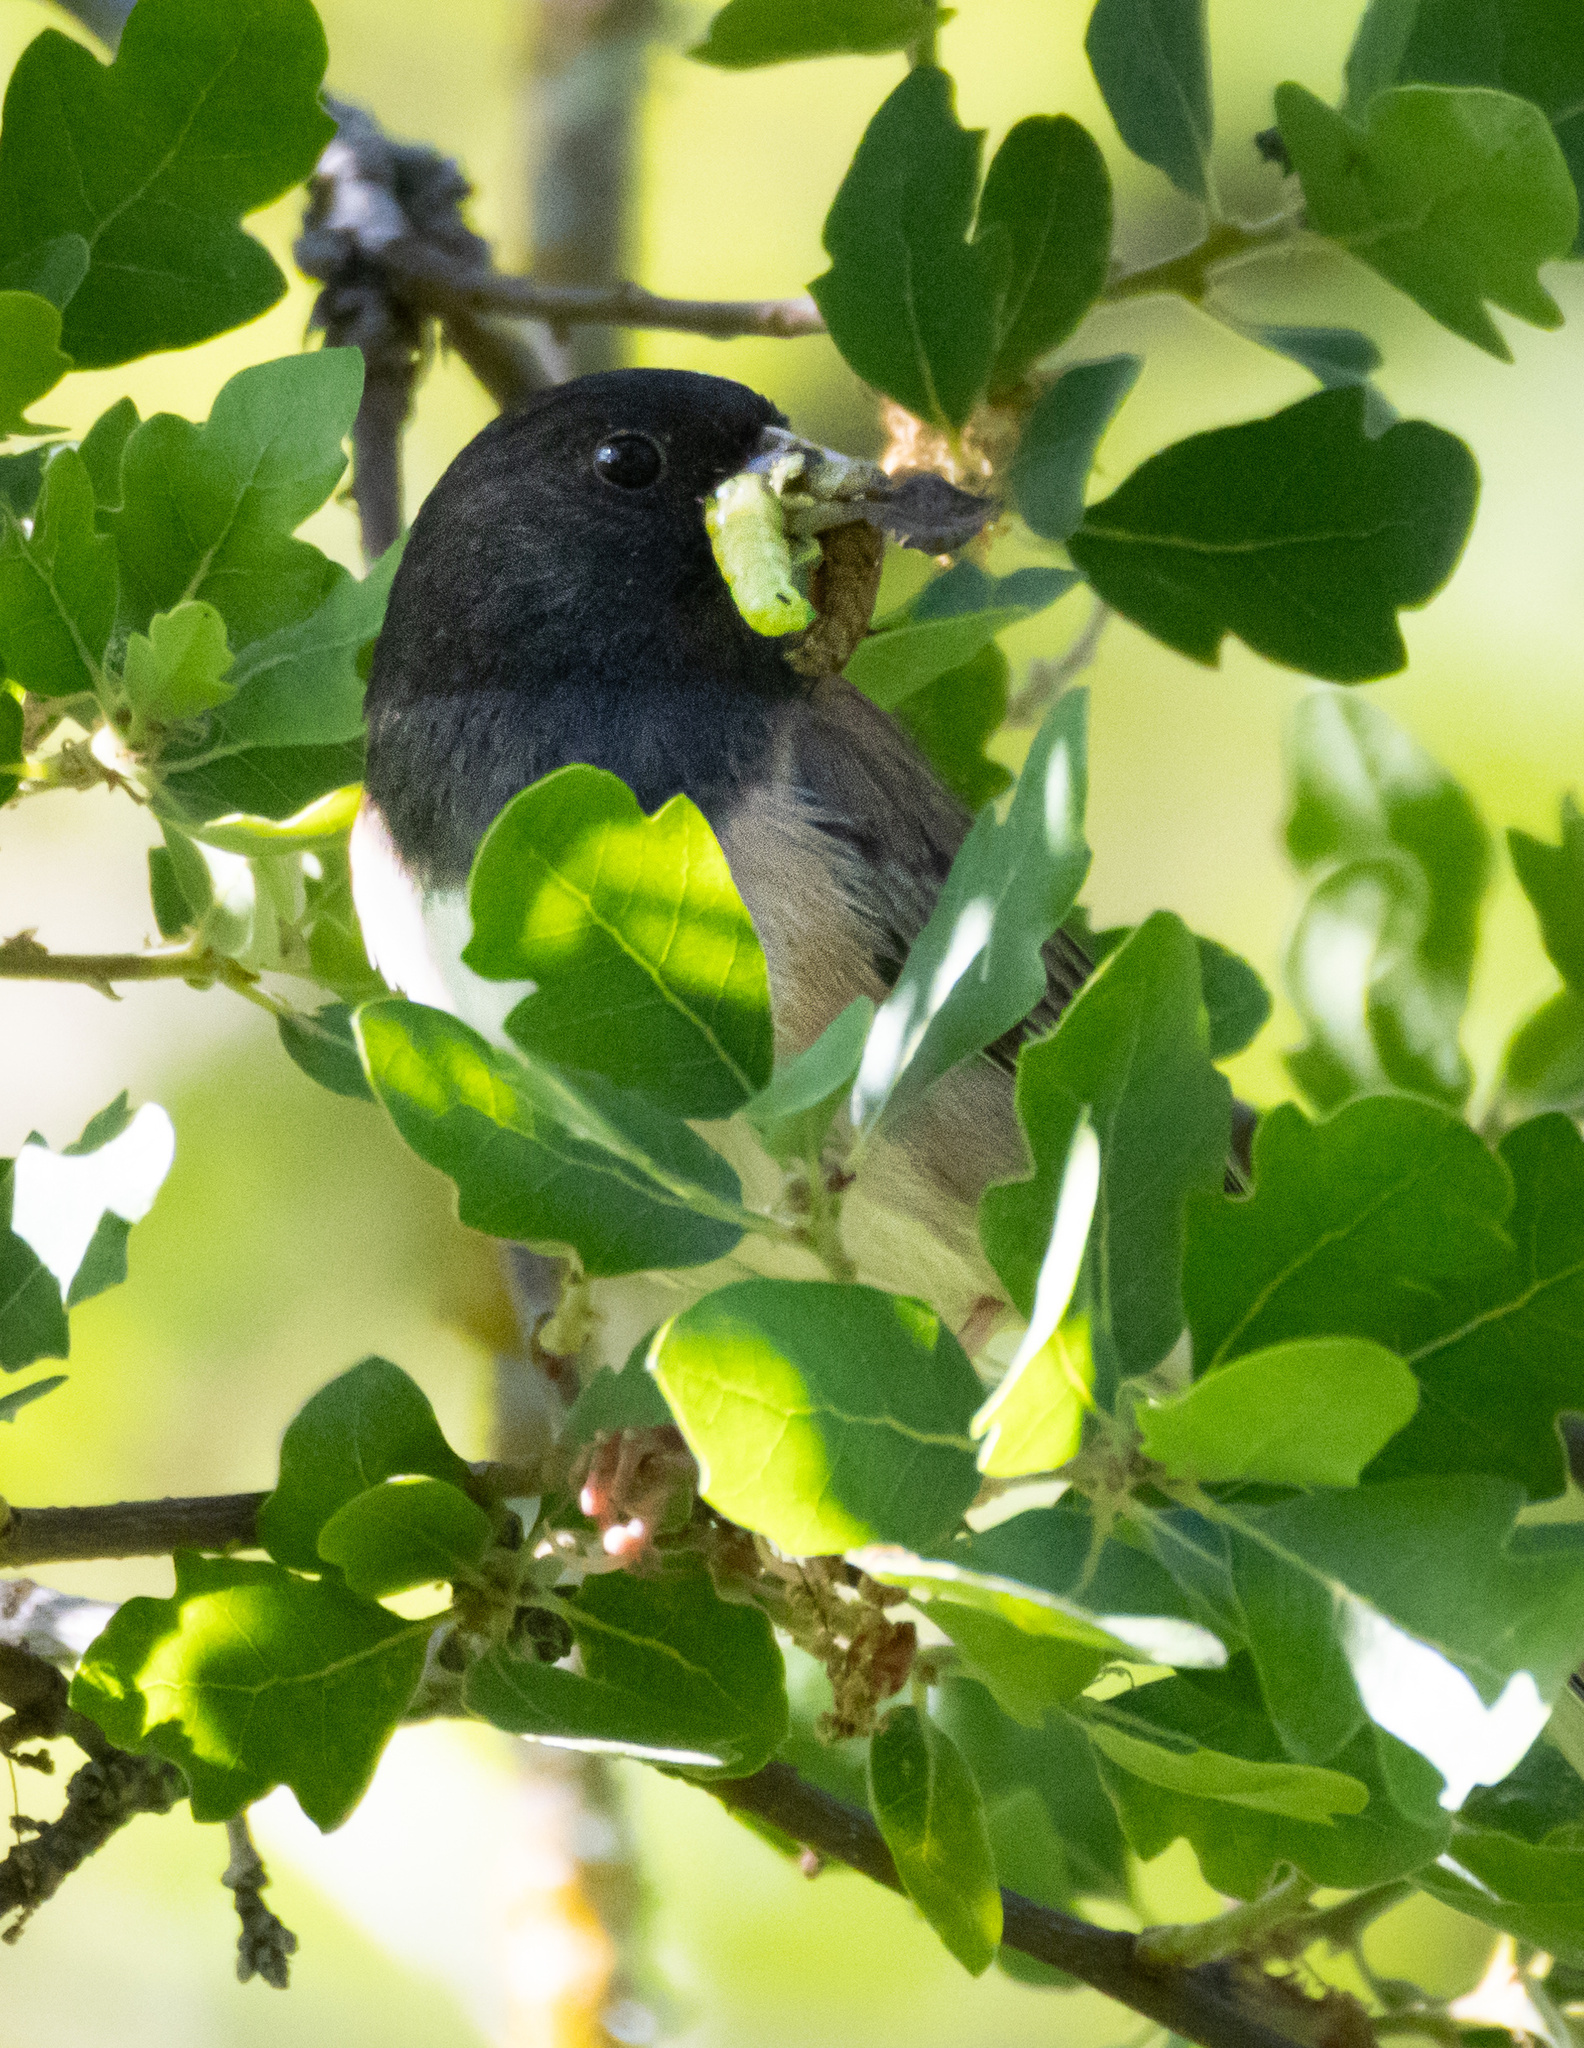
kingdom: Animalia
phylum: Chordata
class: Aves
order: Passeriformes
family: Passerellidae
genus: Junco
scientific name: Junco hyemalis
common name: Dark-eyed junco
